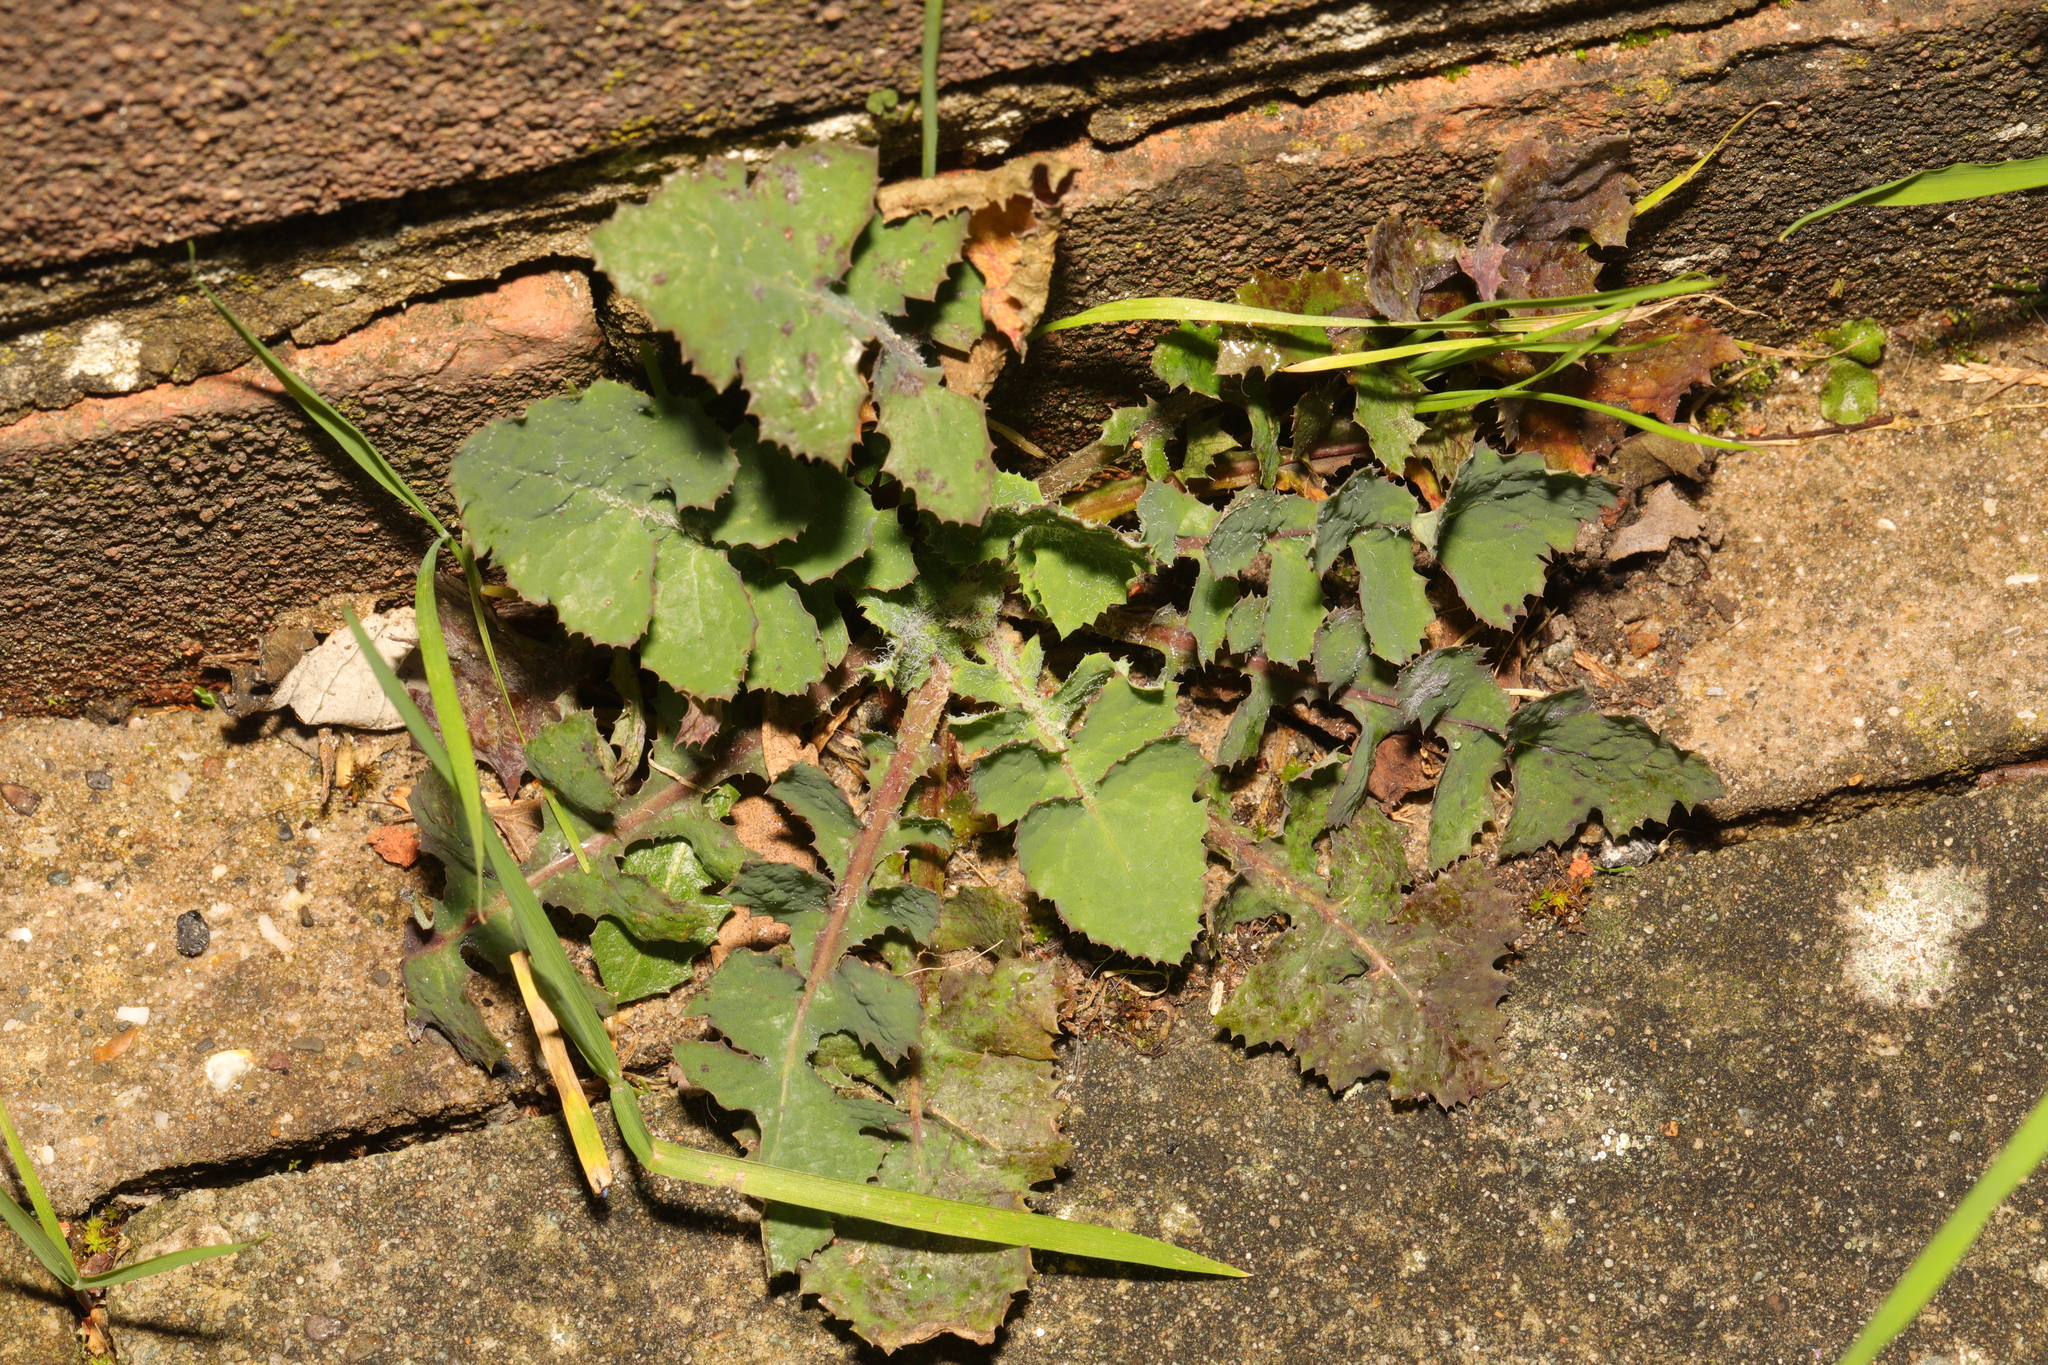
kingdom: Plantae
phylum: Tracheophyta
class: Magnoliopsida
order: Asterales
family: Asteraceae
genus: Sonchus
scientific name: Sonchus oleraceus
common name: Common sowthistle
